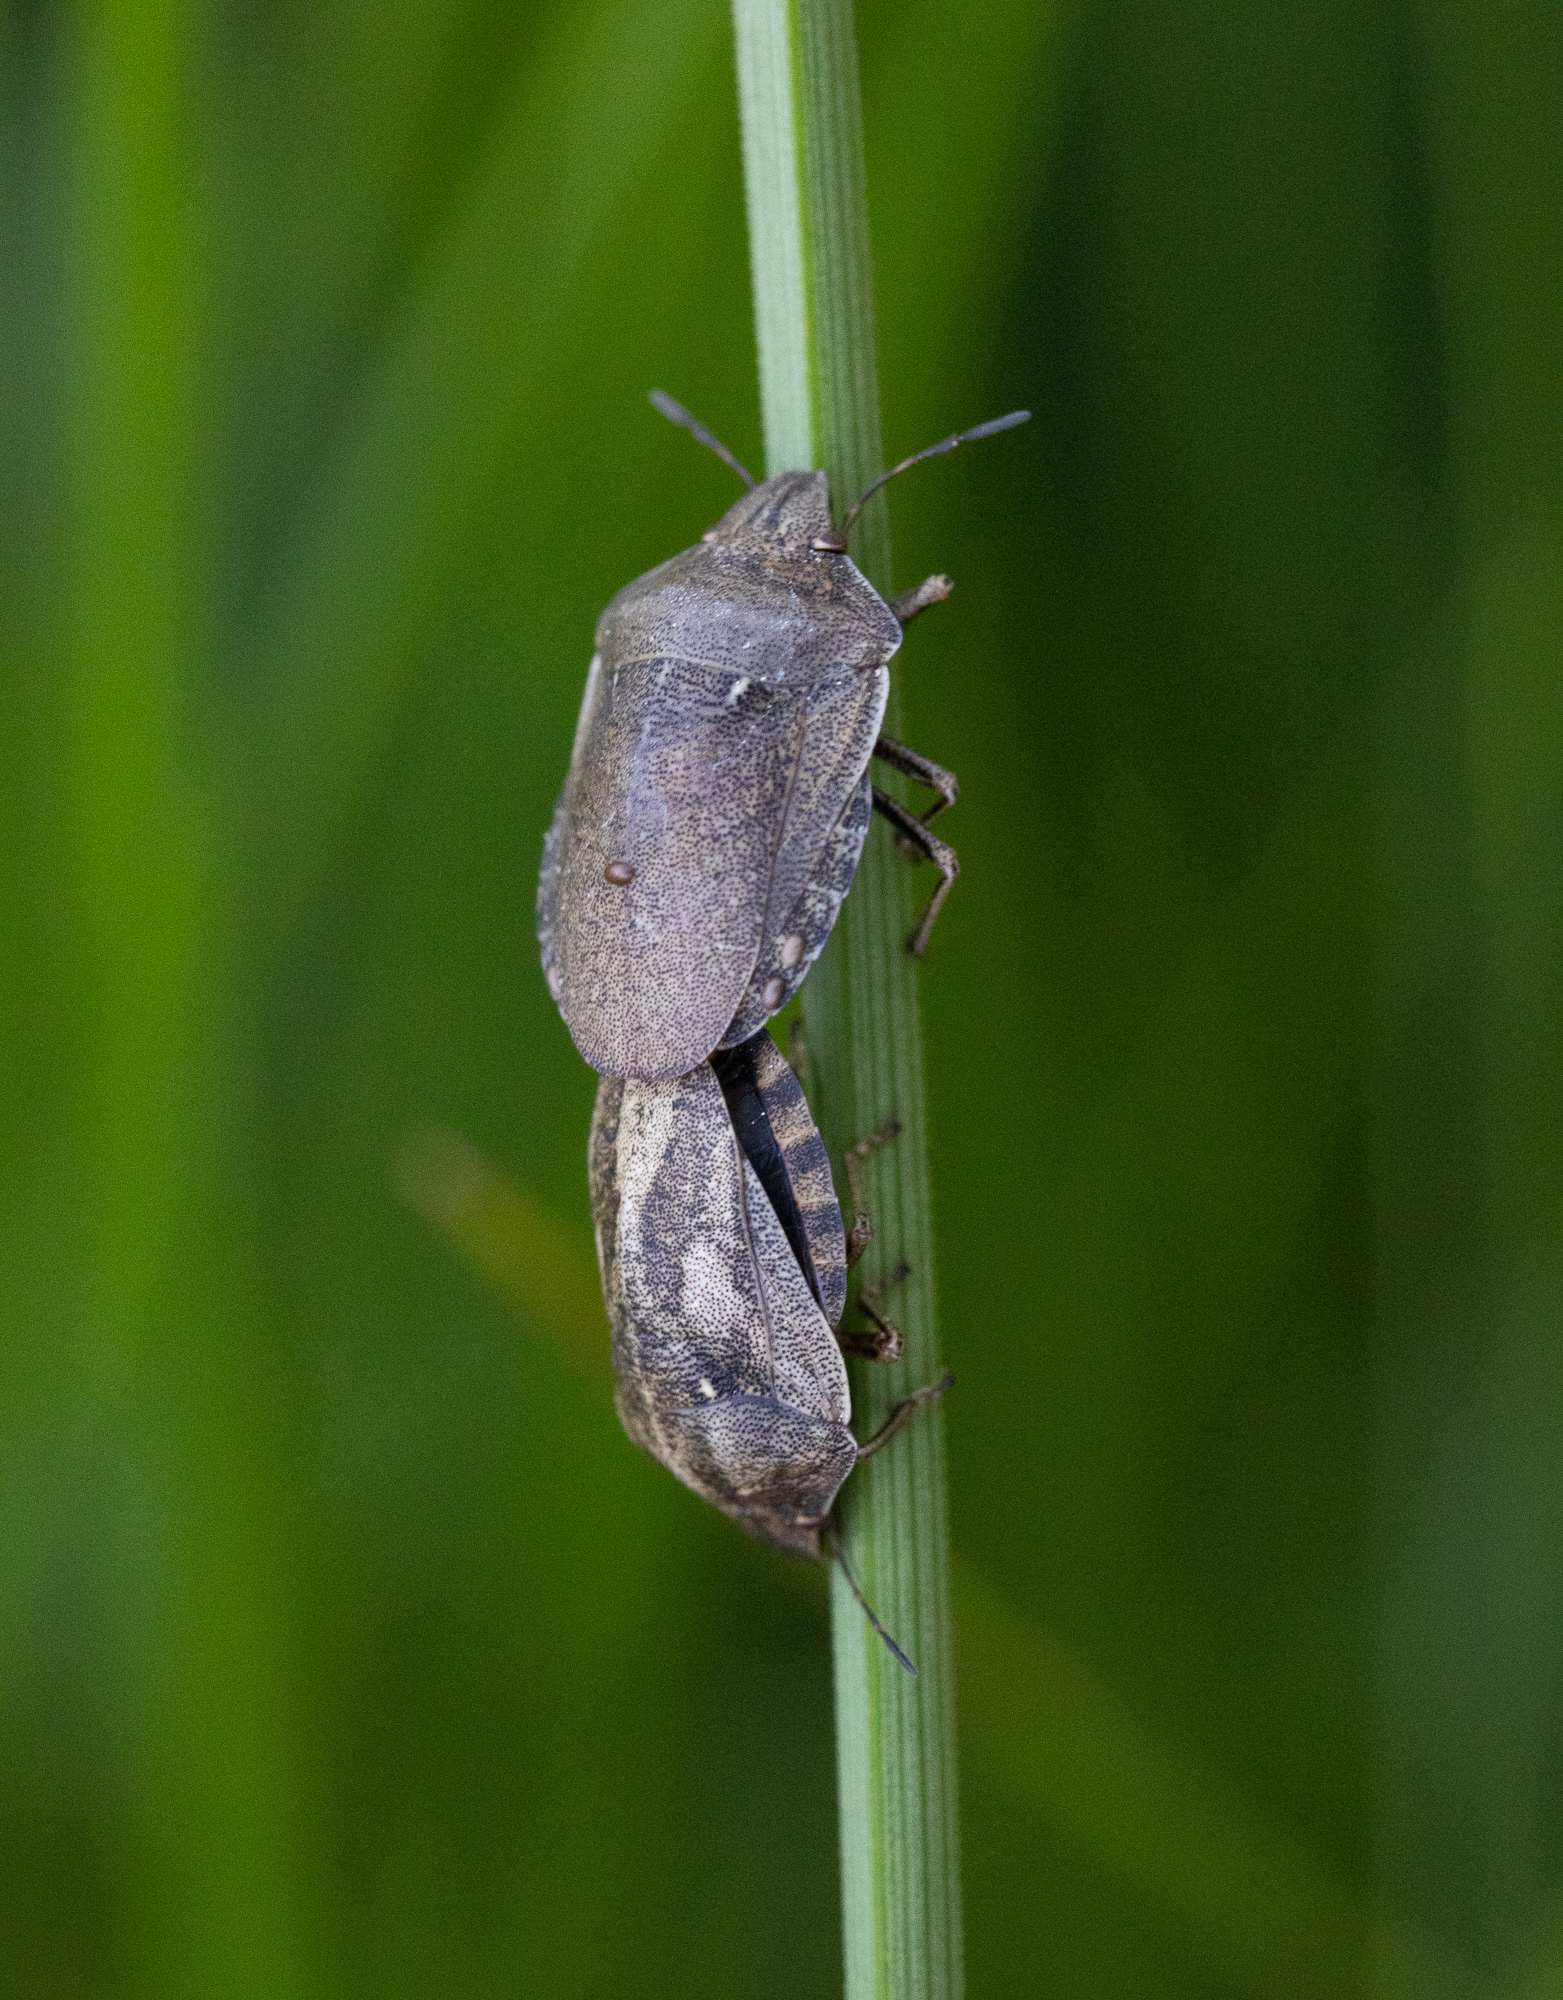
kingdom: Animalia
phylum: Arthropoda
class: Insecta
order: Hemiptera
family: Scutelleridae
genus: Eurygaster
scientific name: Eurygaster testudinaria
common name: Tortoise bug
